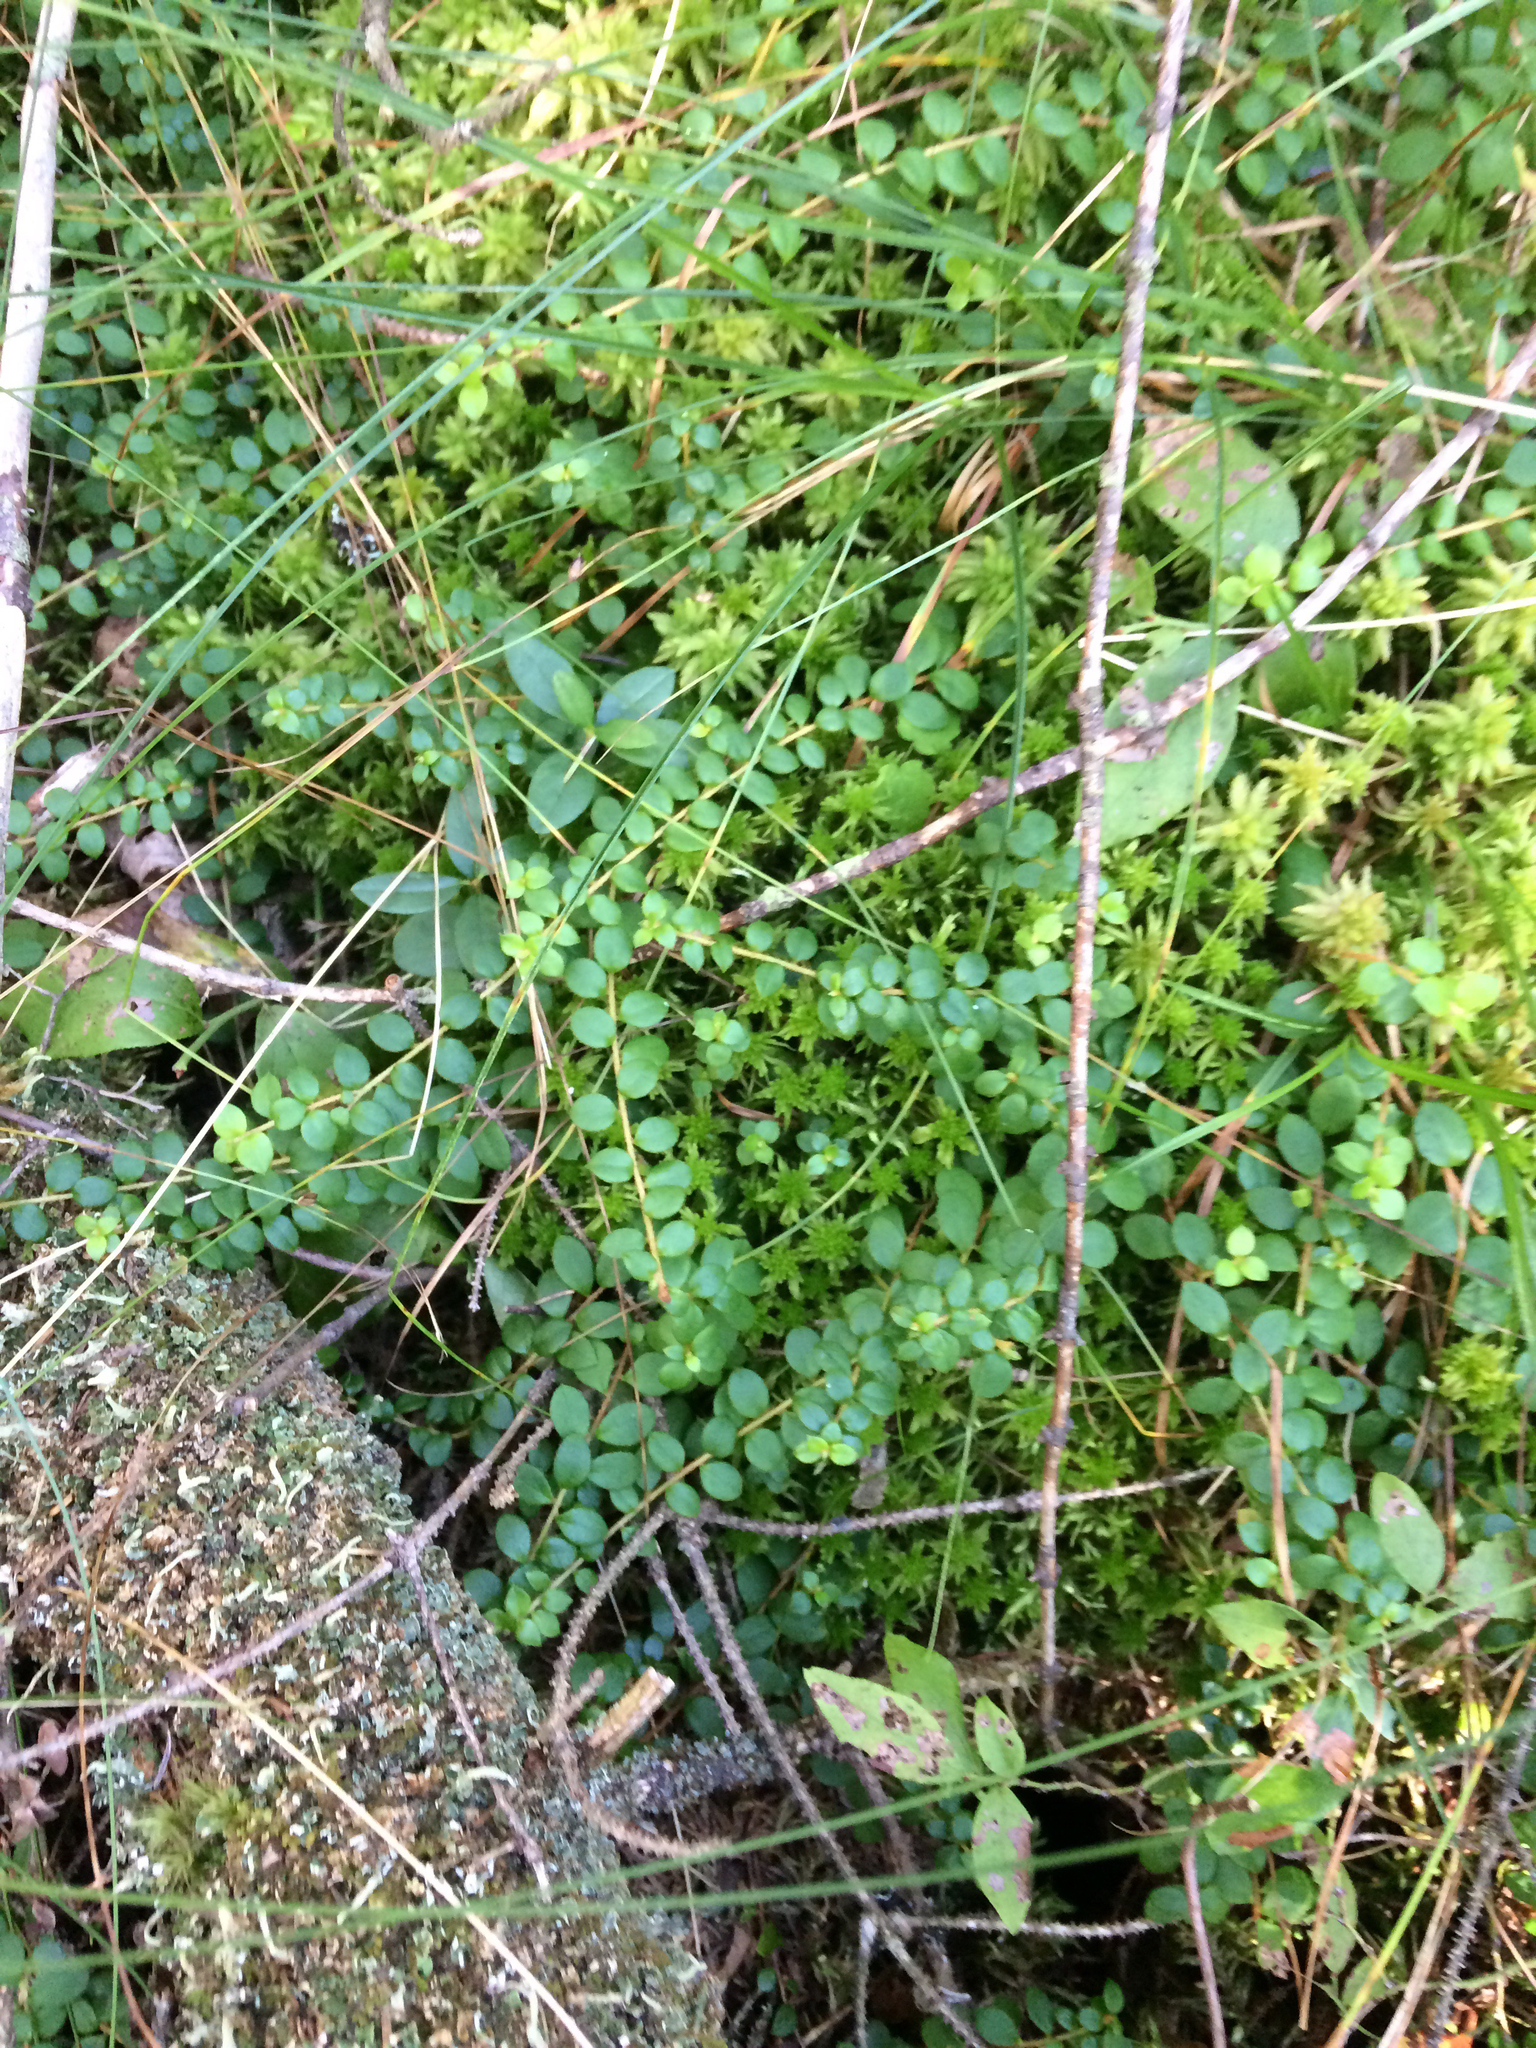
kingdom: Plantae
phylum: Tracheophyta
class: Magnoliopsida
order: Ericales
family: Ericaceae
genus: Gaultheria
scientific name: Gaultheria hispidula
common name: Cancer wintergreen
